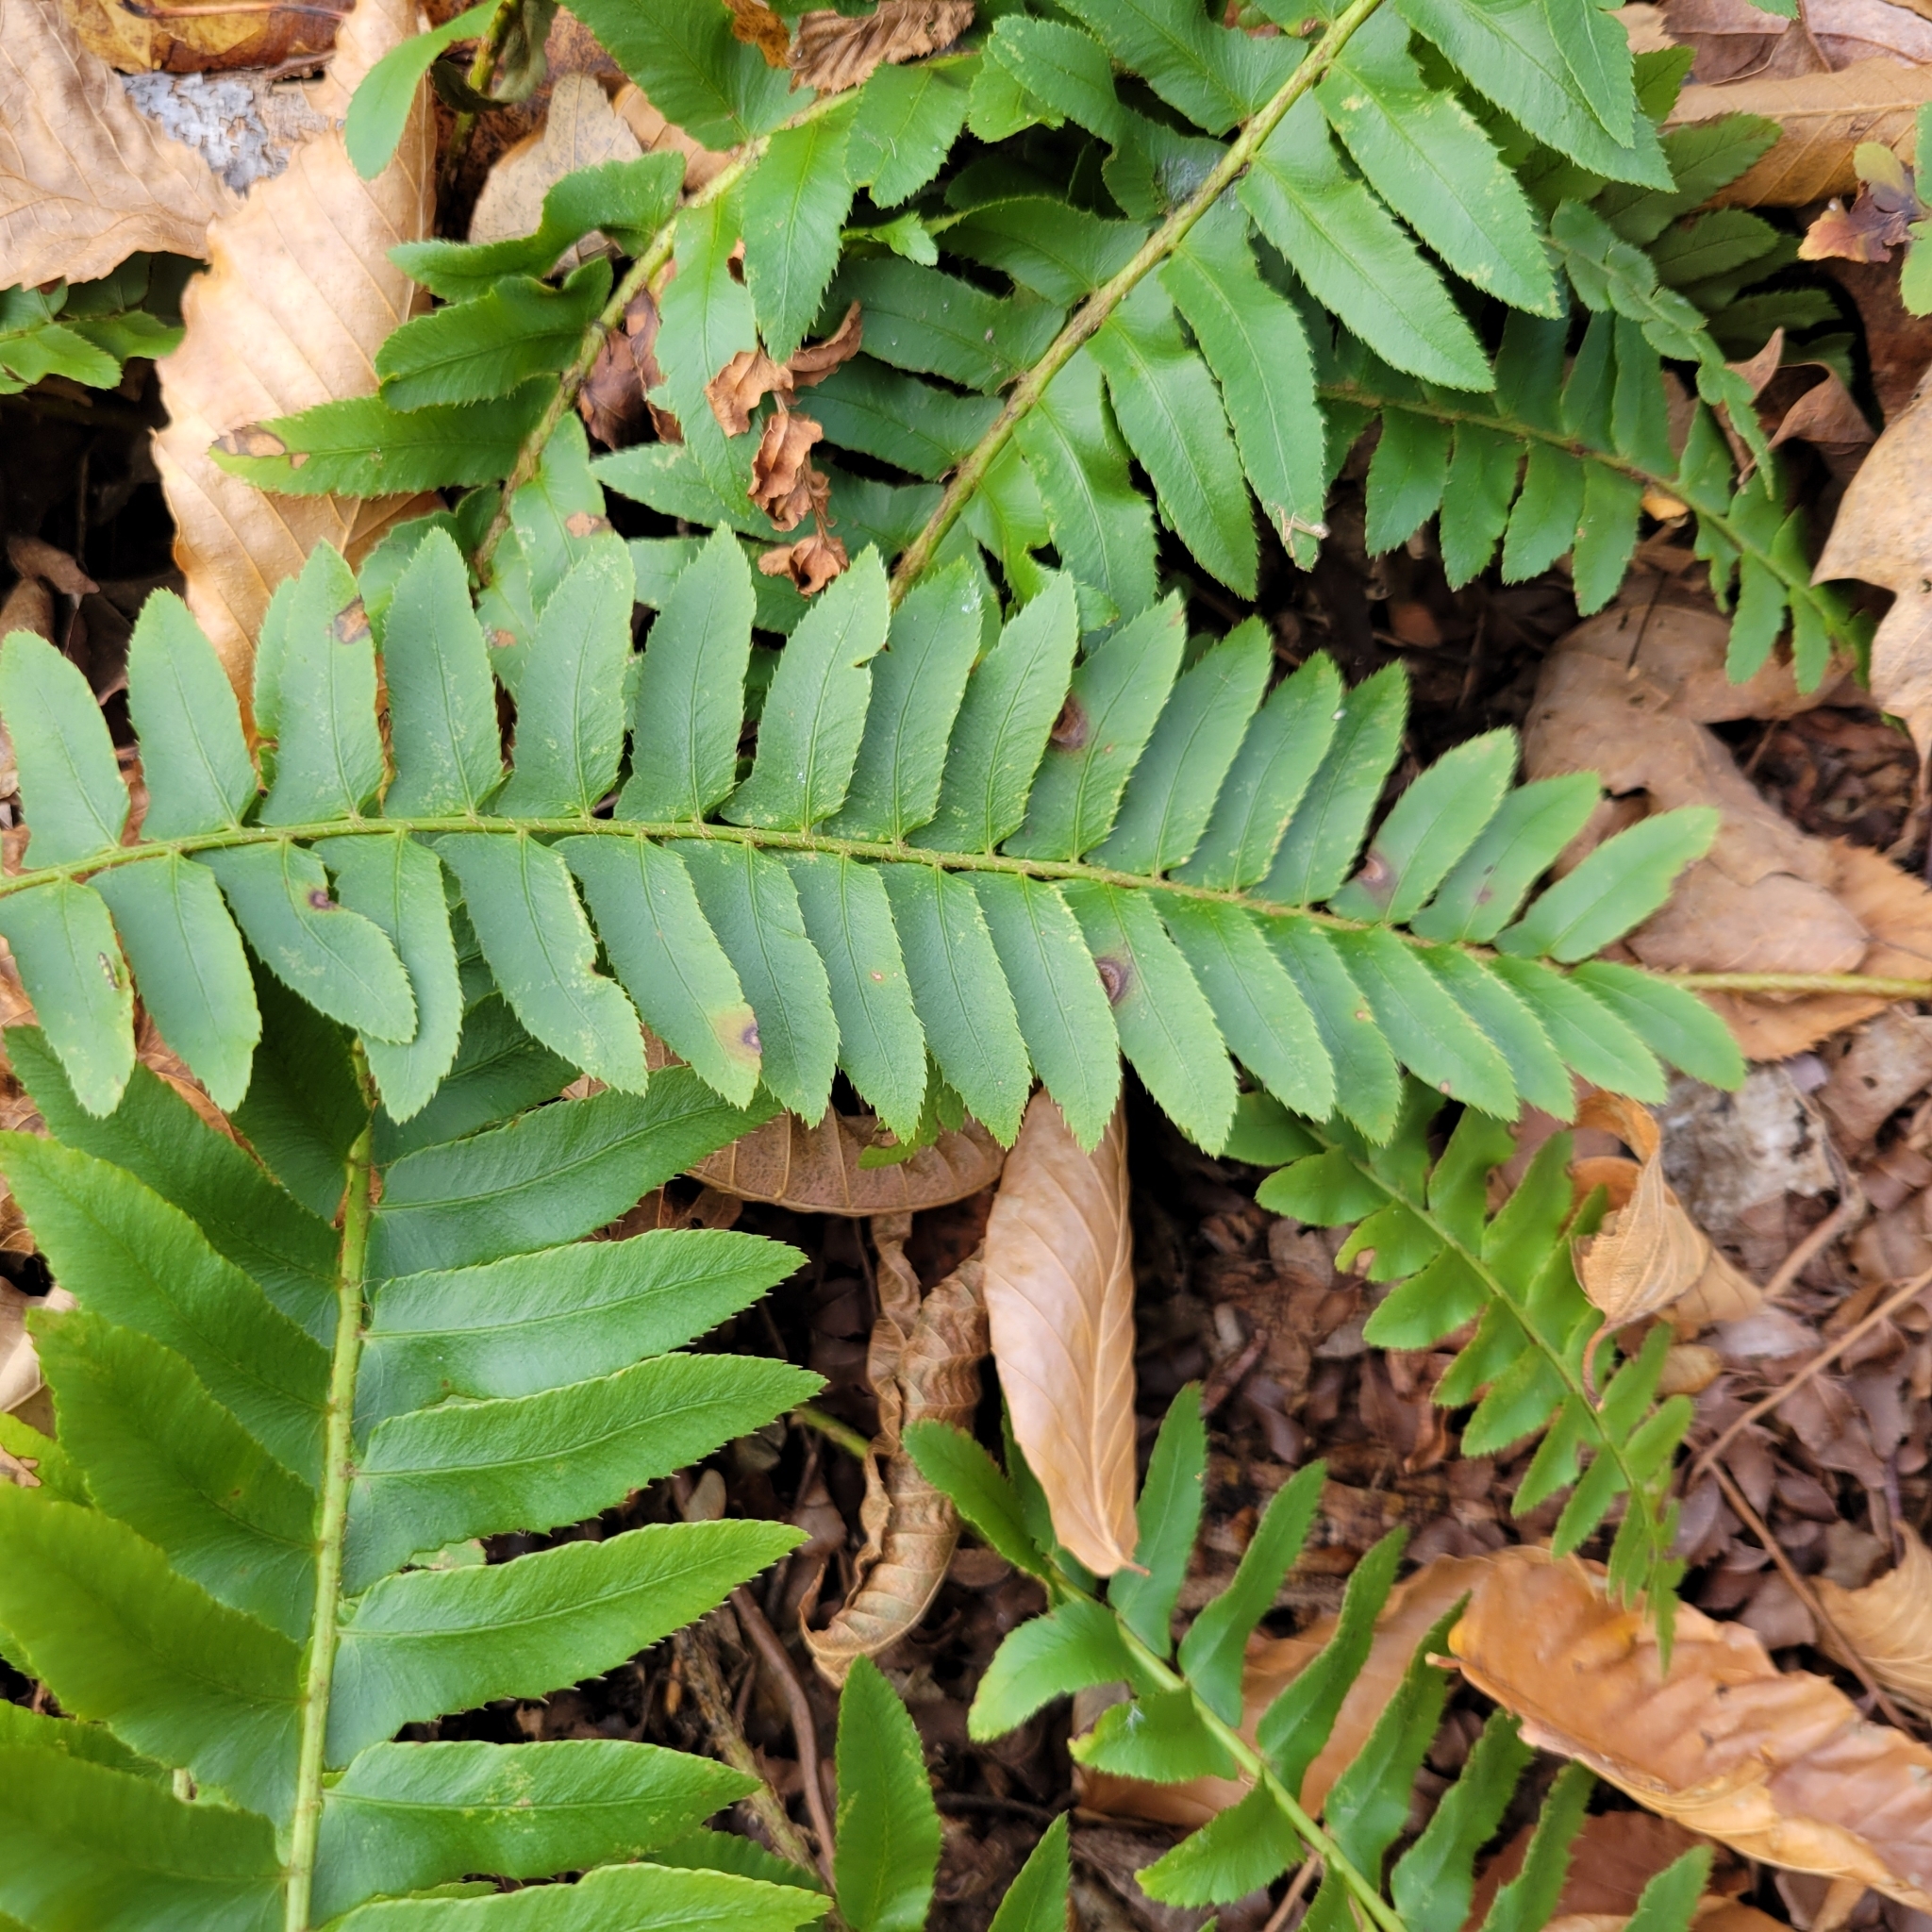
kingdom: Plantae
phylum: Tracheophyta
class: Polypodiopsida
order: Polypodiales
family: Dryopteridaceae
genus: Polystichum
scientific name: Polystichum acrostichoides
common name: Christmas fern
